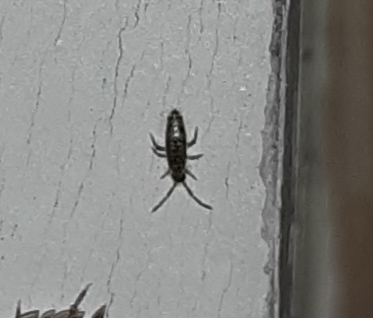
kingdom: Animalia
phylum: Arthropoda
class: Collembola
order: Entomobryomorpha
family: Entomobryidae
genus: Willowsia
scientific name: Willowsia nigromaculata
